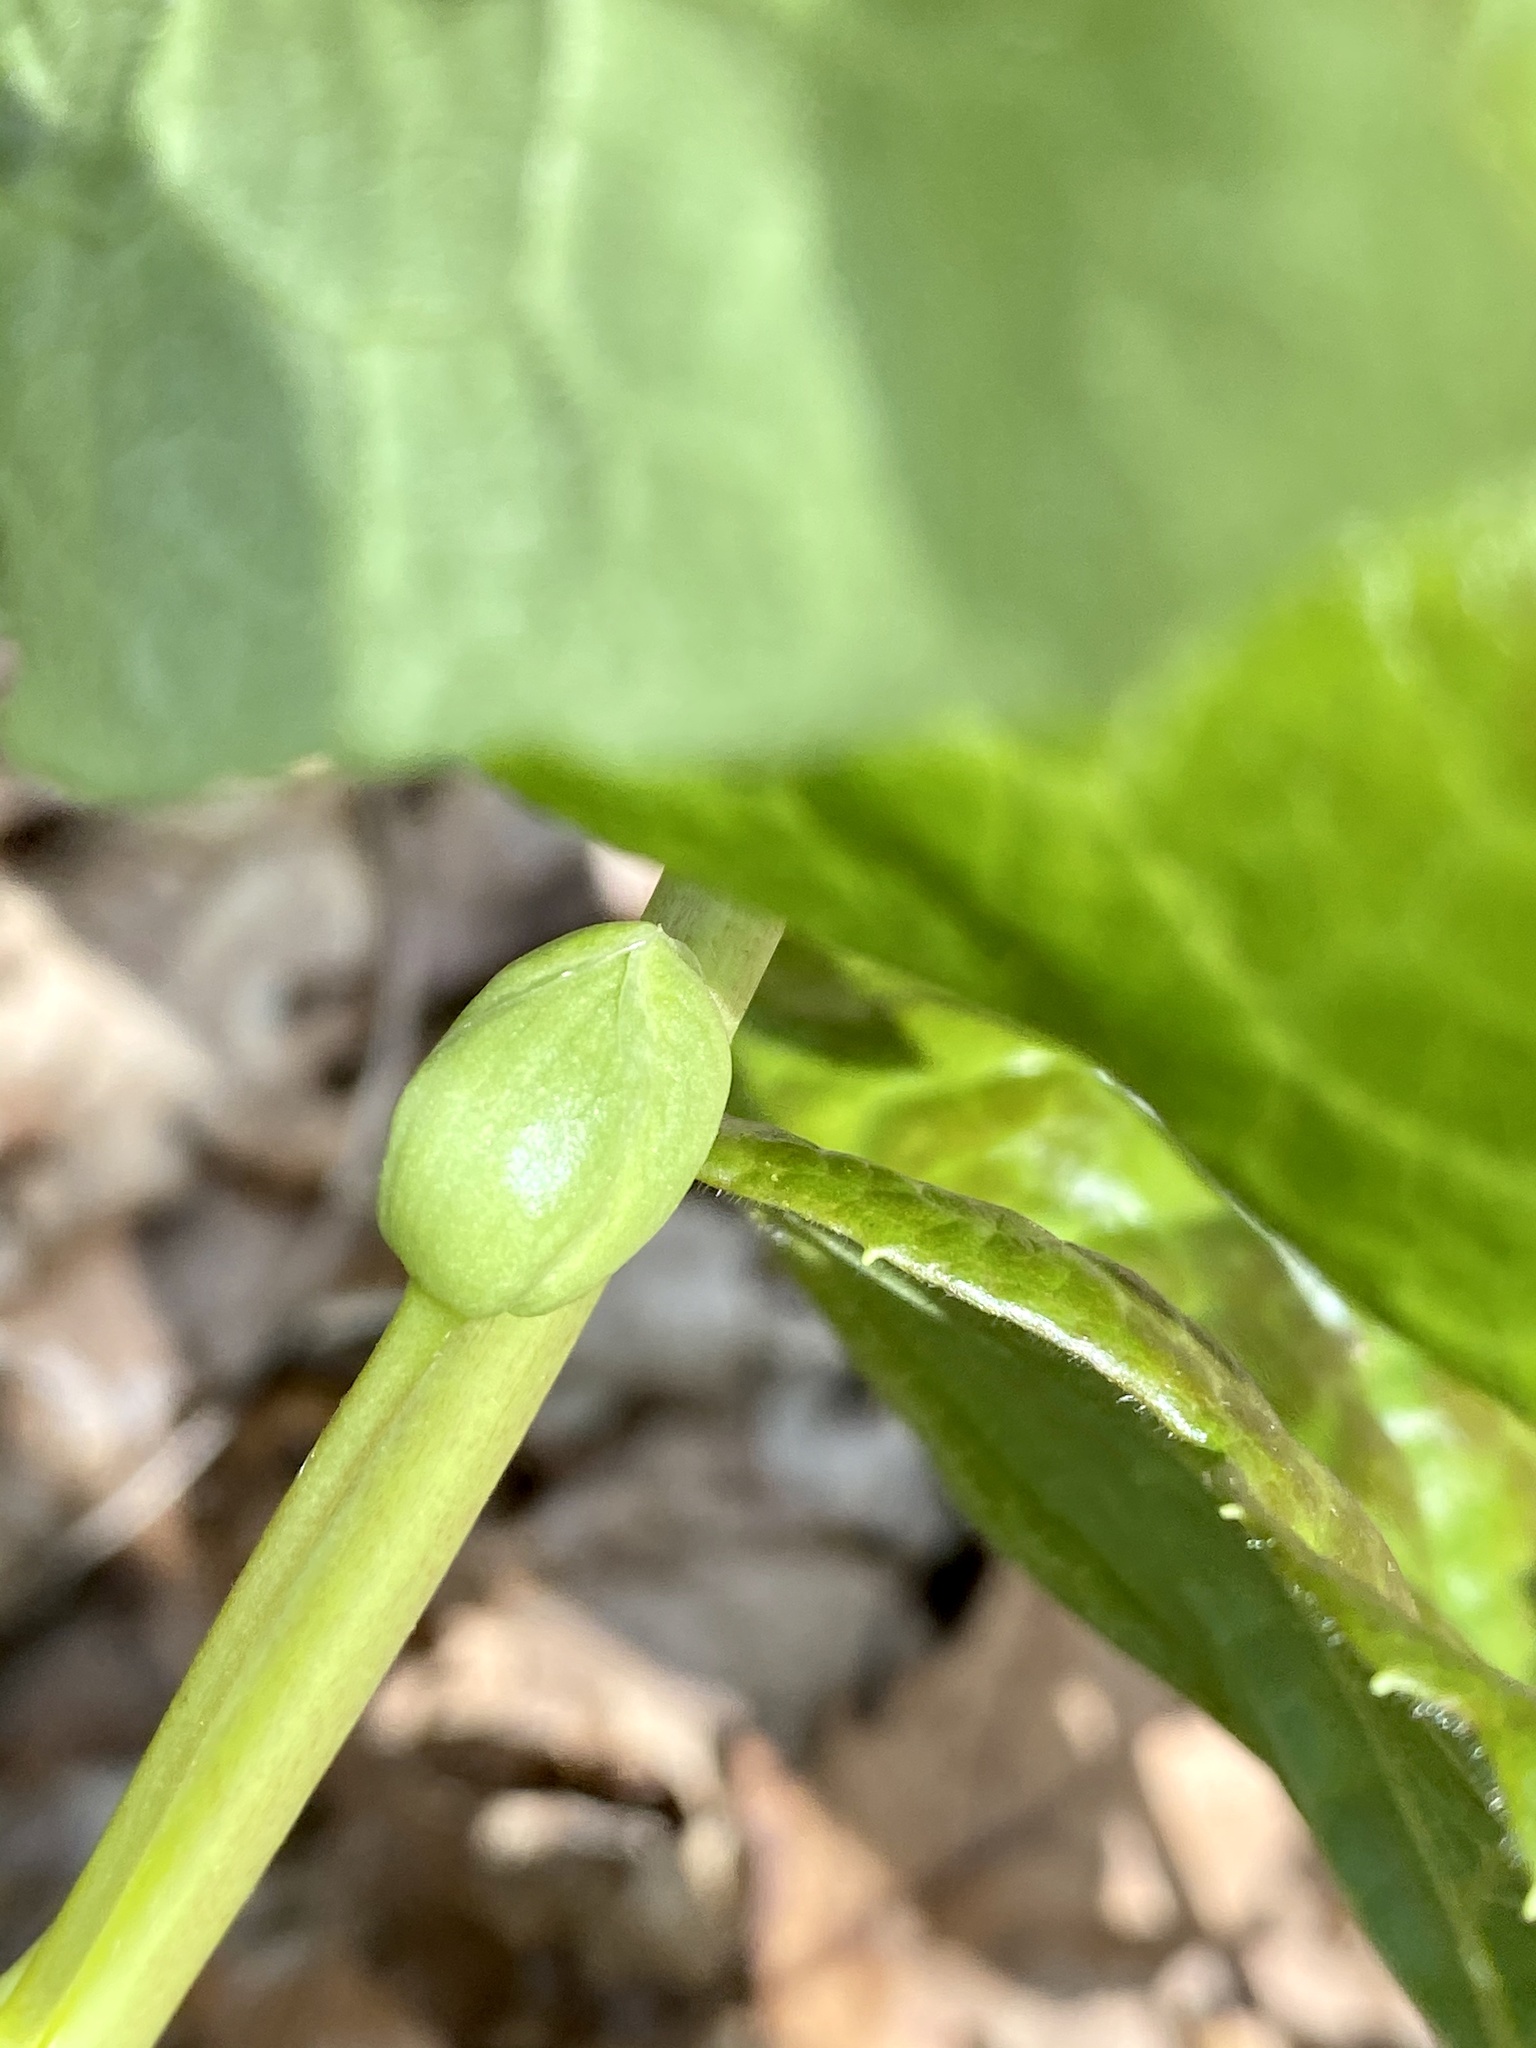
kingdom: Plantae
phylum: Tracheophyta
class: Magnoliopsida
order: Ranunculales
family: Berberidaceae
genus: Podophyllum
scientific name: Podophyllum peltatum
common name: Wild mandrake
